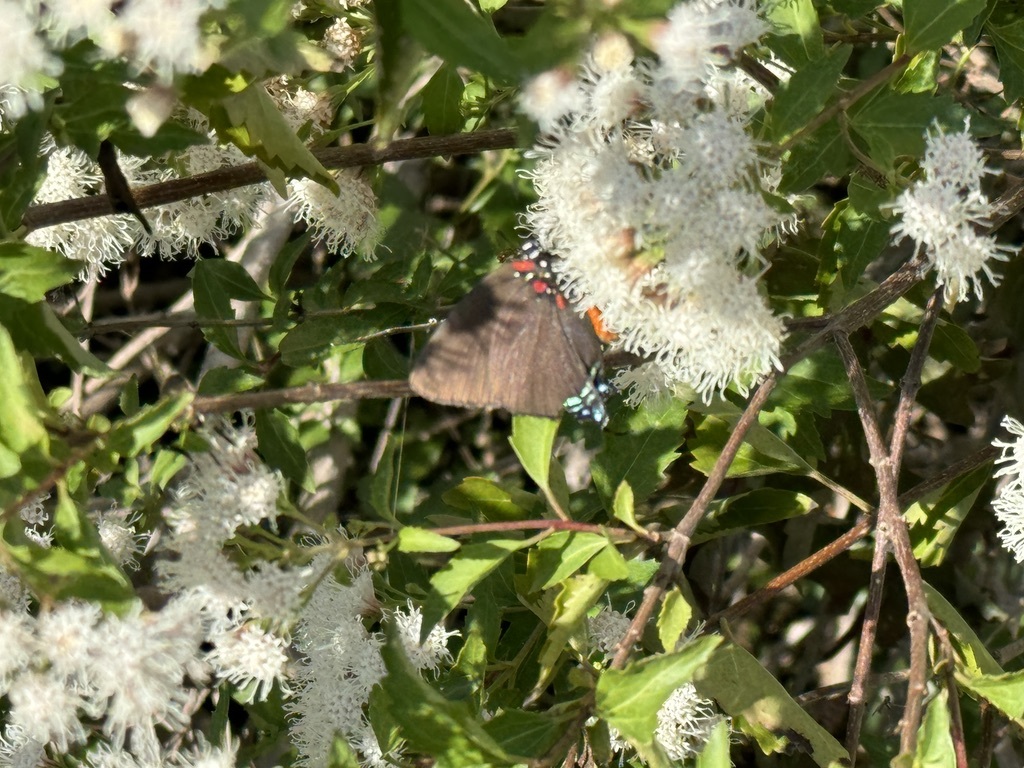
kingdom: Animalia
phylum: Arthropoda
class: Insecta
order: Lepidoptera
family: Lycaenidae
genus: Atlides
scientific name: Atlides halesus
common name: Great purple hairstreak
